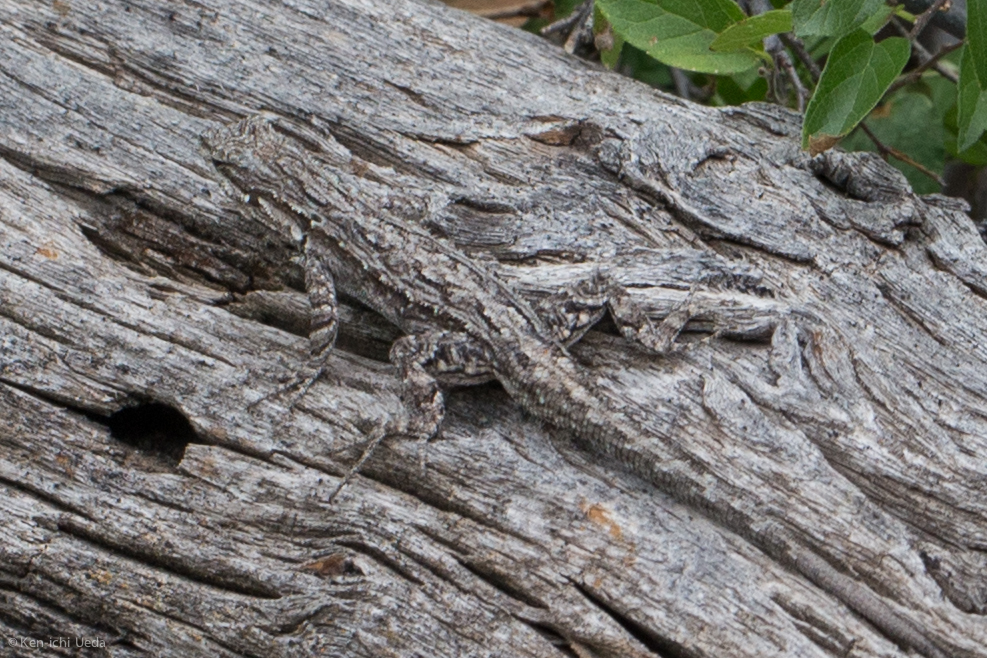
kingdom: Animalia
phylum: Chordata
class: Squamata
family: Phrynosomatidae
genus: Urosaurus
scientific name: Urosaurus ornatus
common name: Ornate tree lizard
